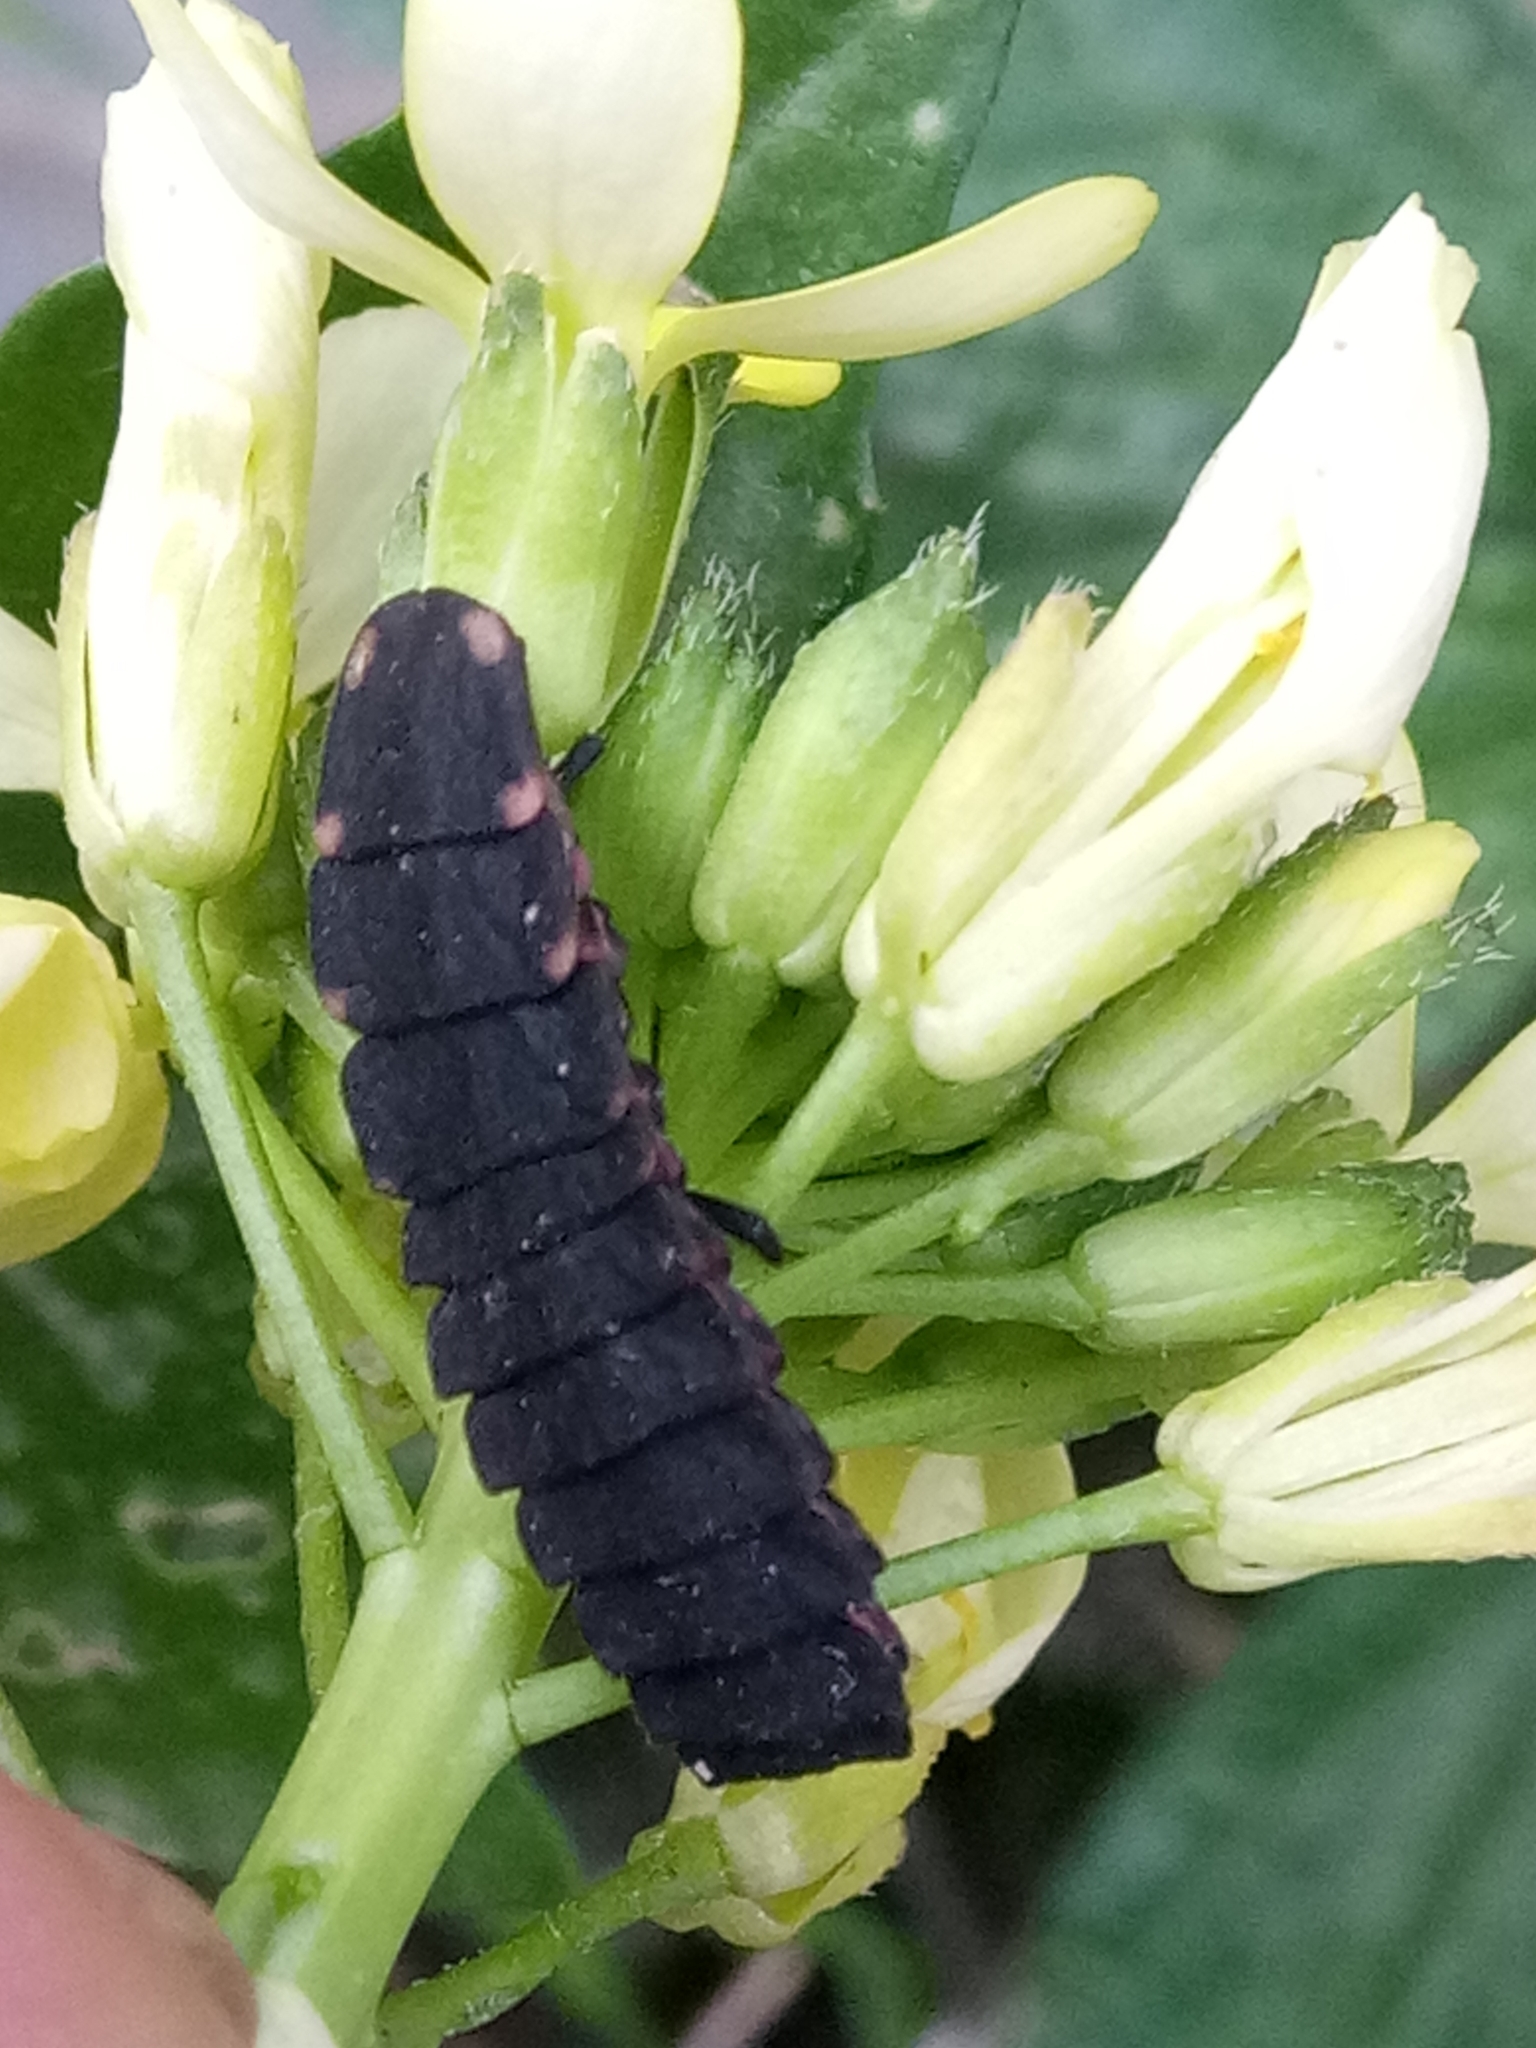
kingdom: Animalia
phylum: Arthropoda
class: Insecta
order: Coleoptera
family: Lampyridae
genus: Pelania
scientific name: Pelania mauritanica
